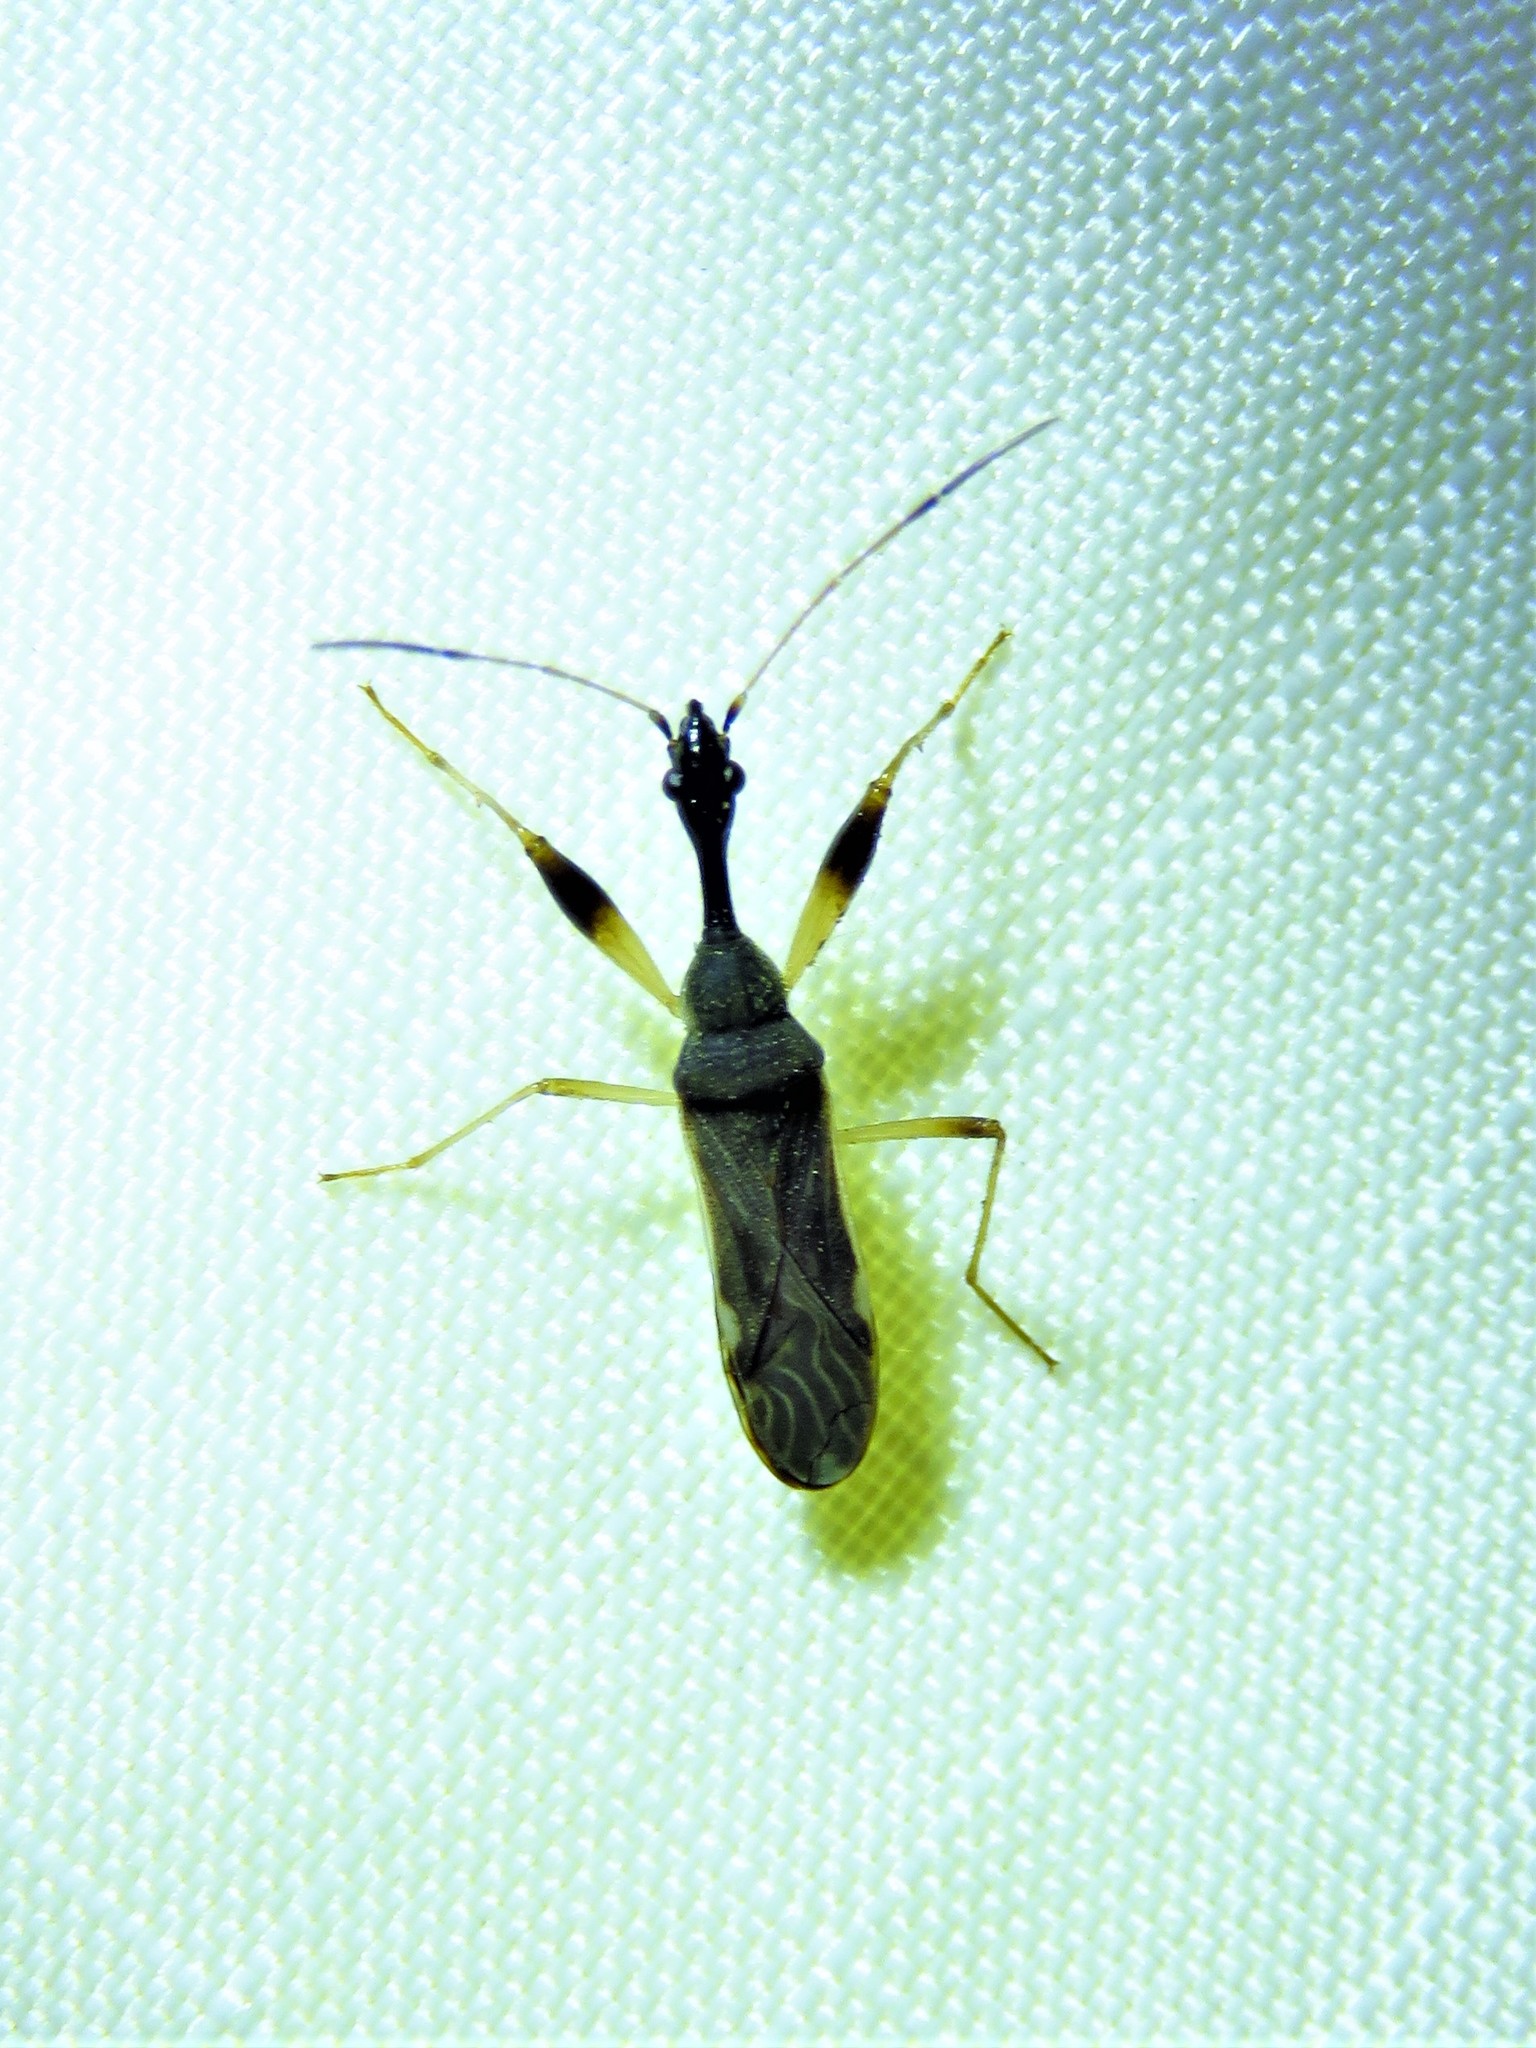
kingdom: Animalia
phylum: Arthropoda
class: Insecta
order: Hemiptera
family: Rhyparochromidae
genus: Myodocha
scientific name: Myodocha serripes
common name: Long-necked seed bug
